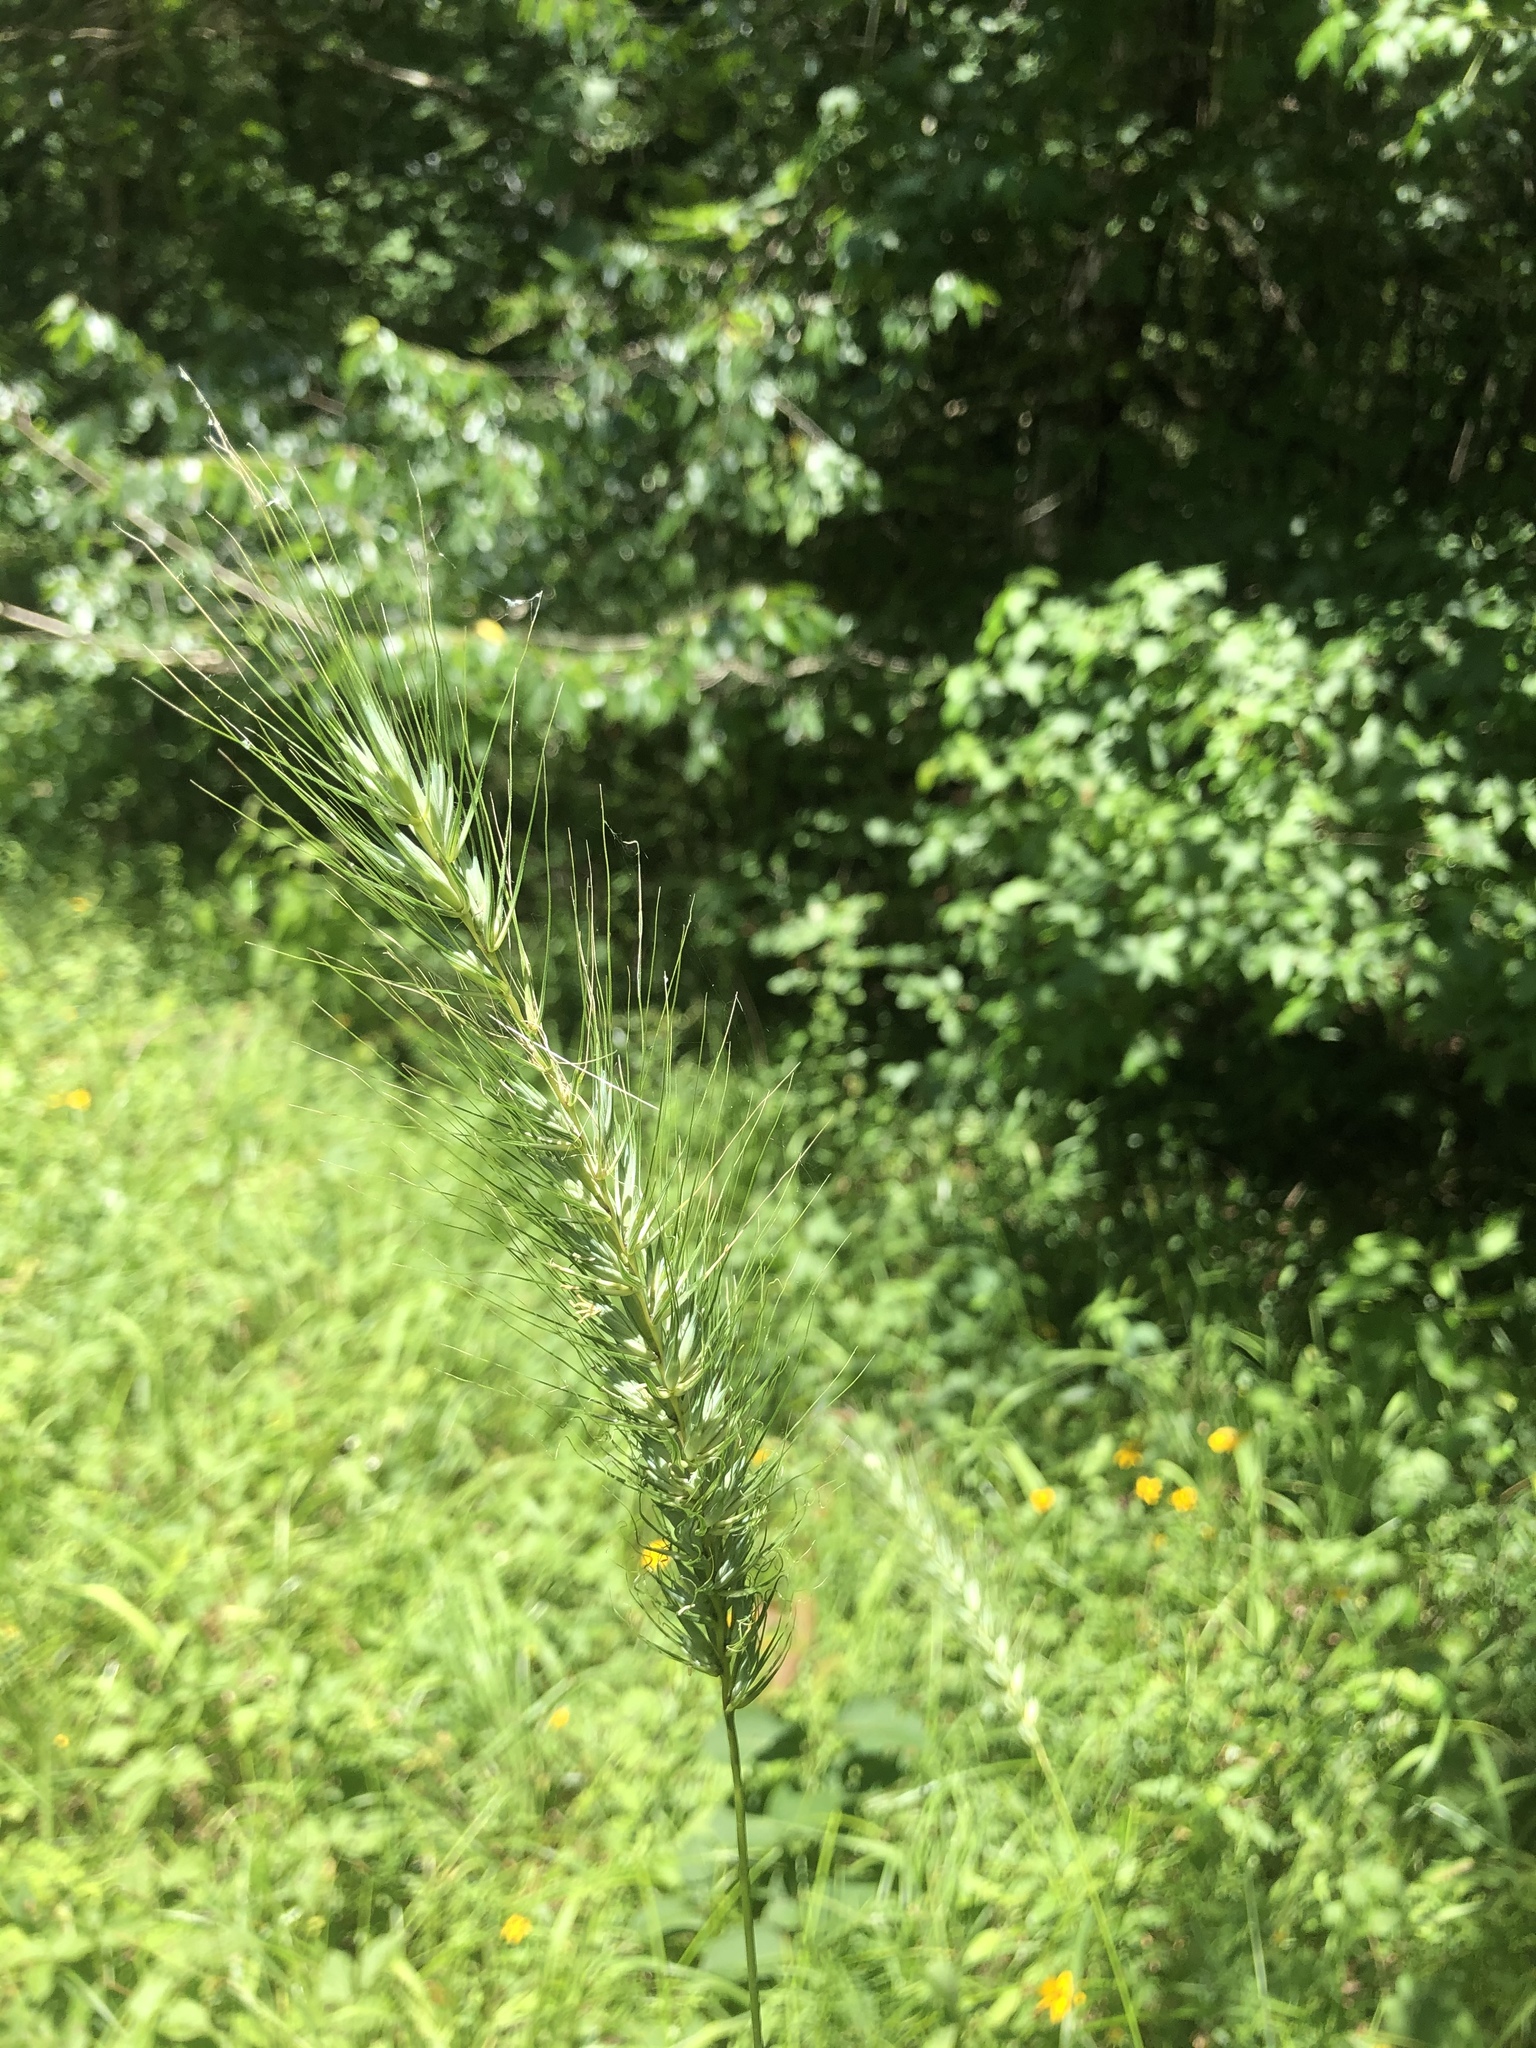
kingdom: Plantae
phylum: Tracheophyta
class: Liliopsida
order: Poales
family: Poaceae
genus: Elymus
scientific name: Elymus virginicus
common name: Common eastern wildrye
